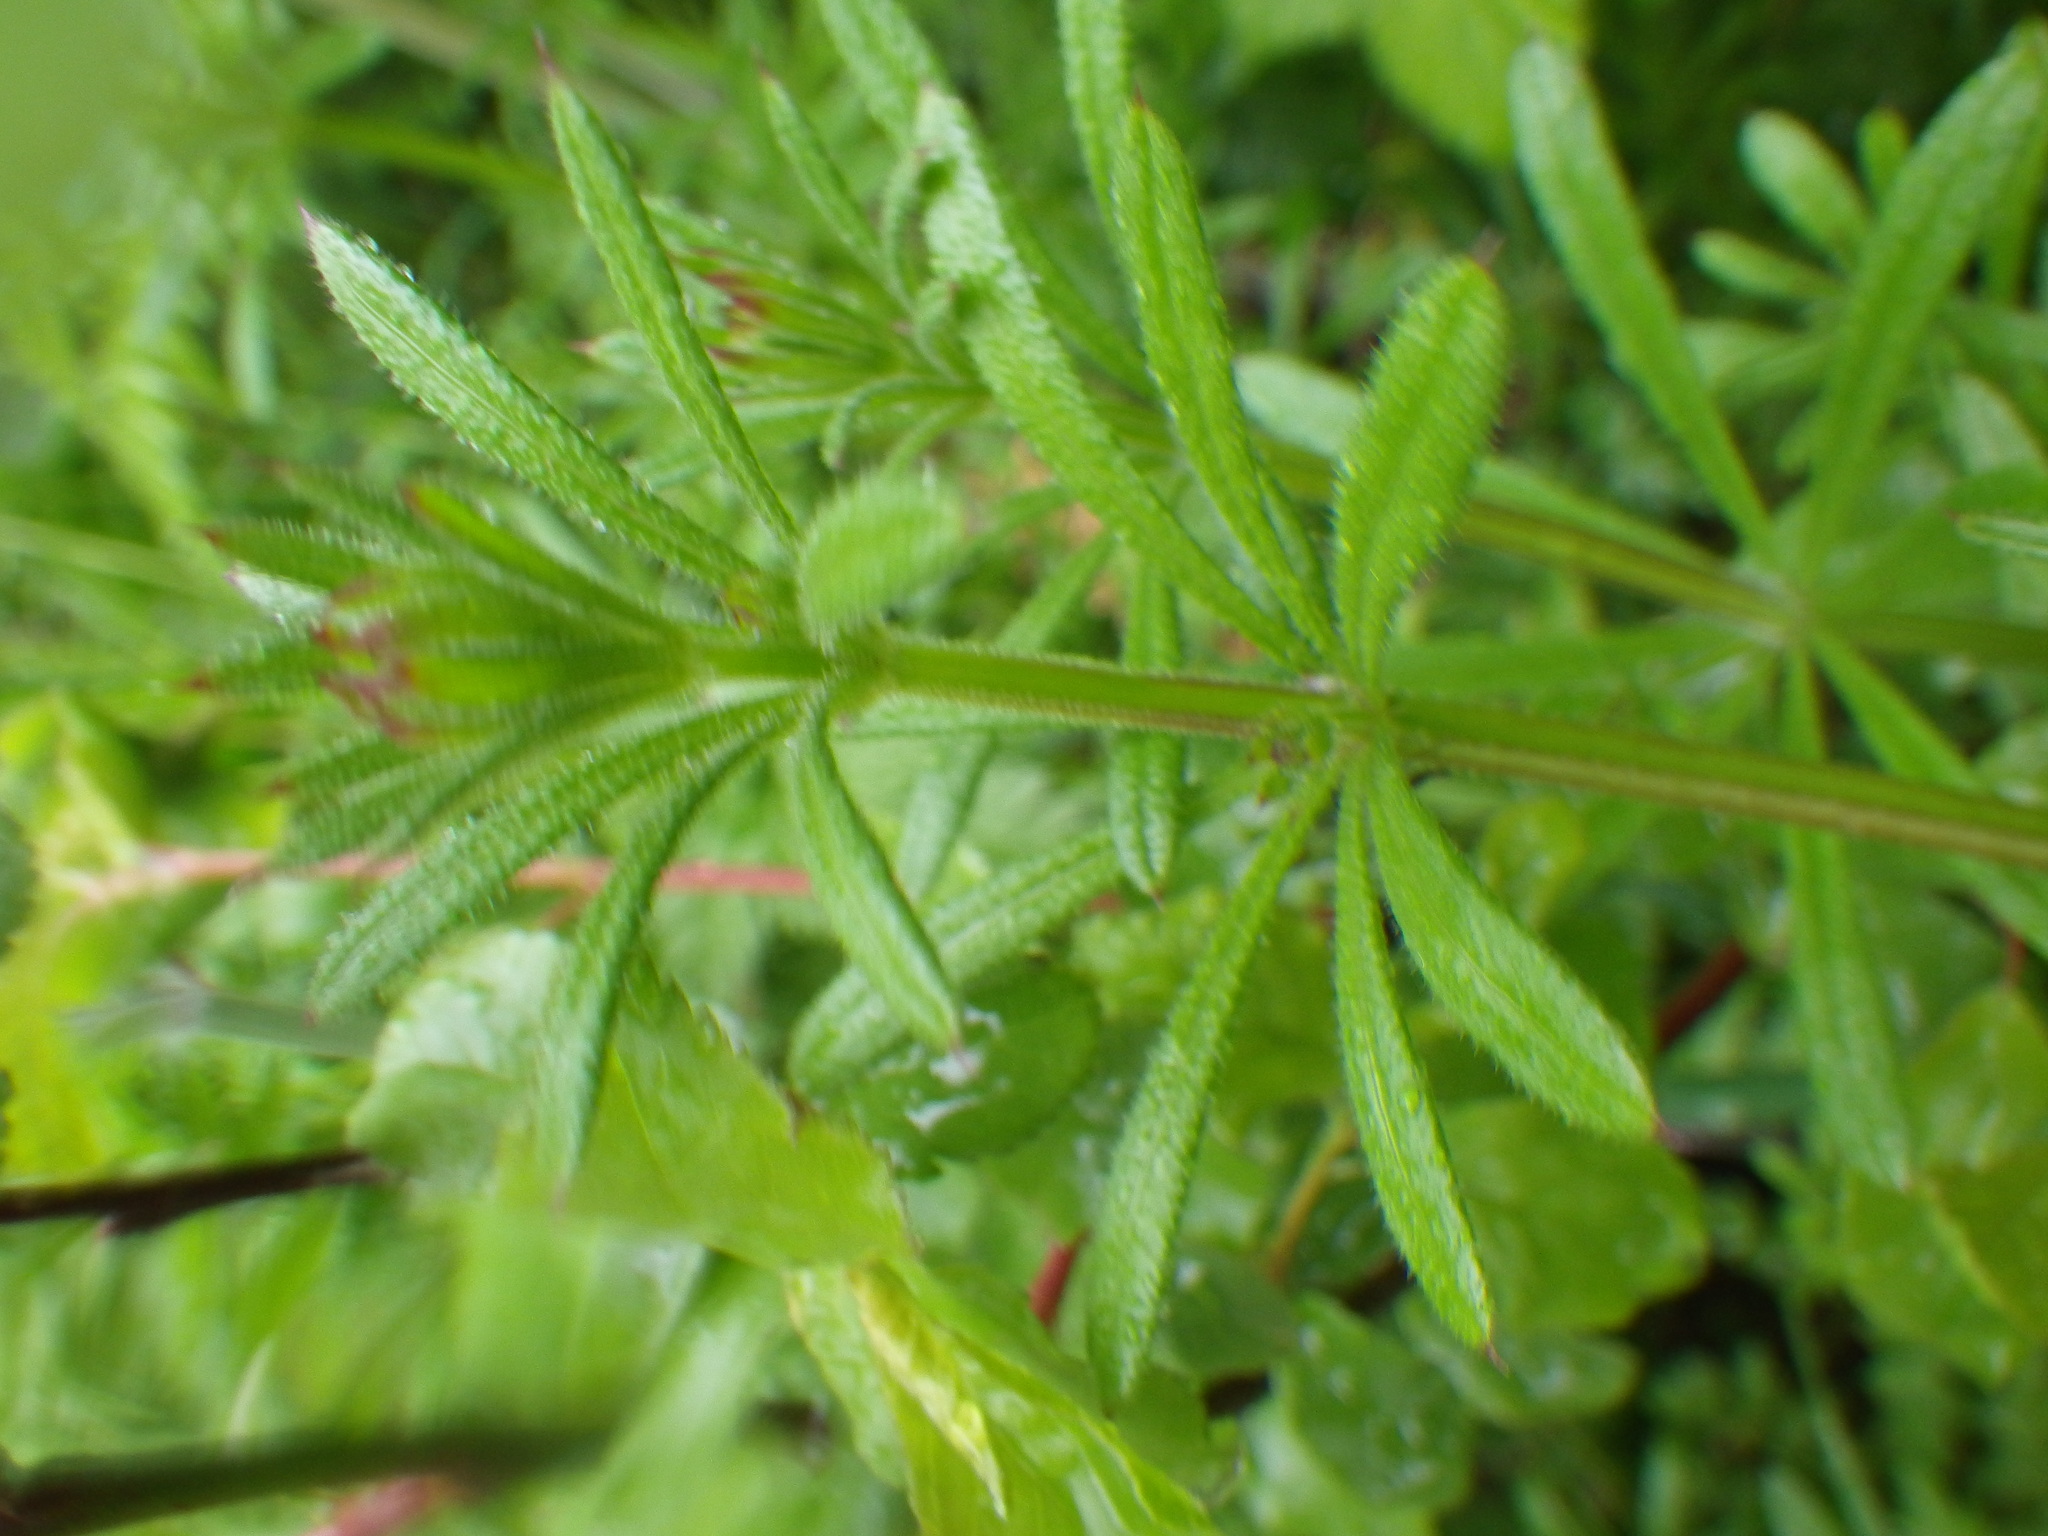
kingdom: Plantae
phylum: Tracheophyta
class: Magnoliopsida
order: Gentianales
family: Rubiaceae
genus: Galium
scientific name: Galium aparine
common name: Cleavers
